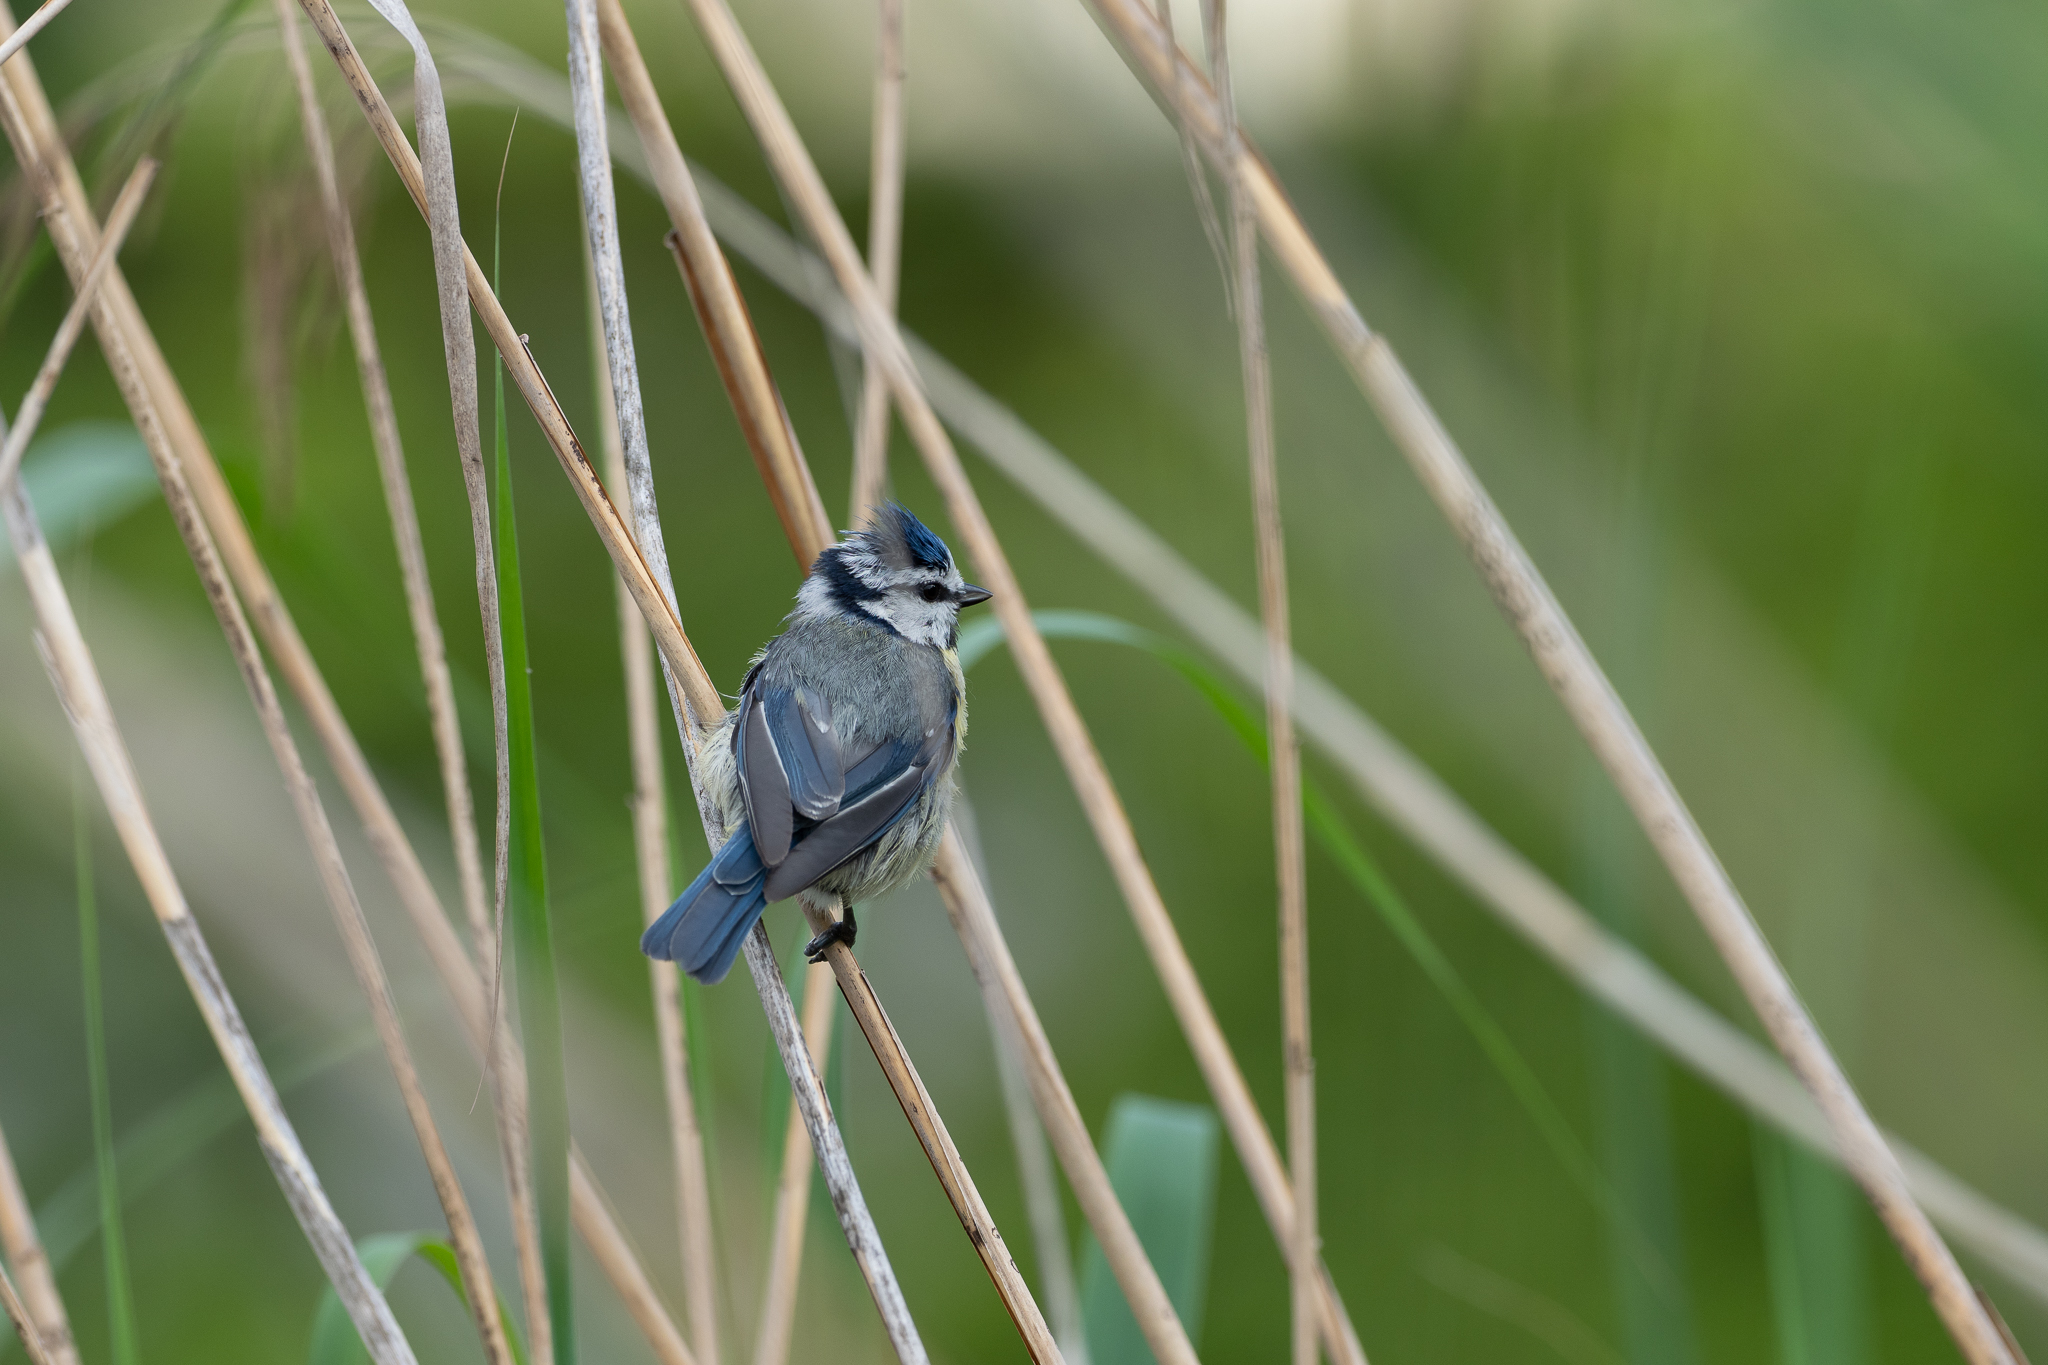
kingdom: Animalia
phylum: Chordata
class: Aves
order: Passeriformes
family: Paridae
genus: Cyanistes
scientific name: Cyanistes caeruleus
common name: Eurasian blue tit
